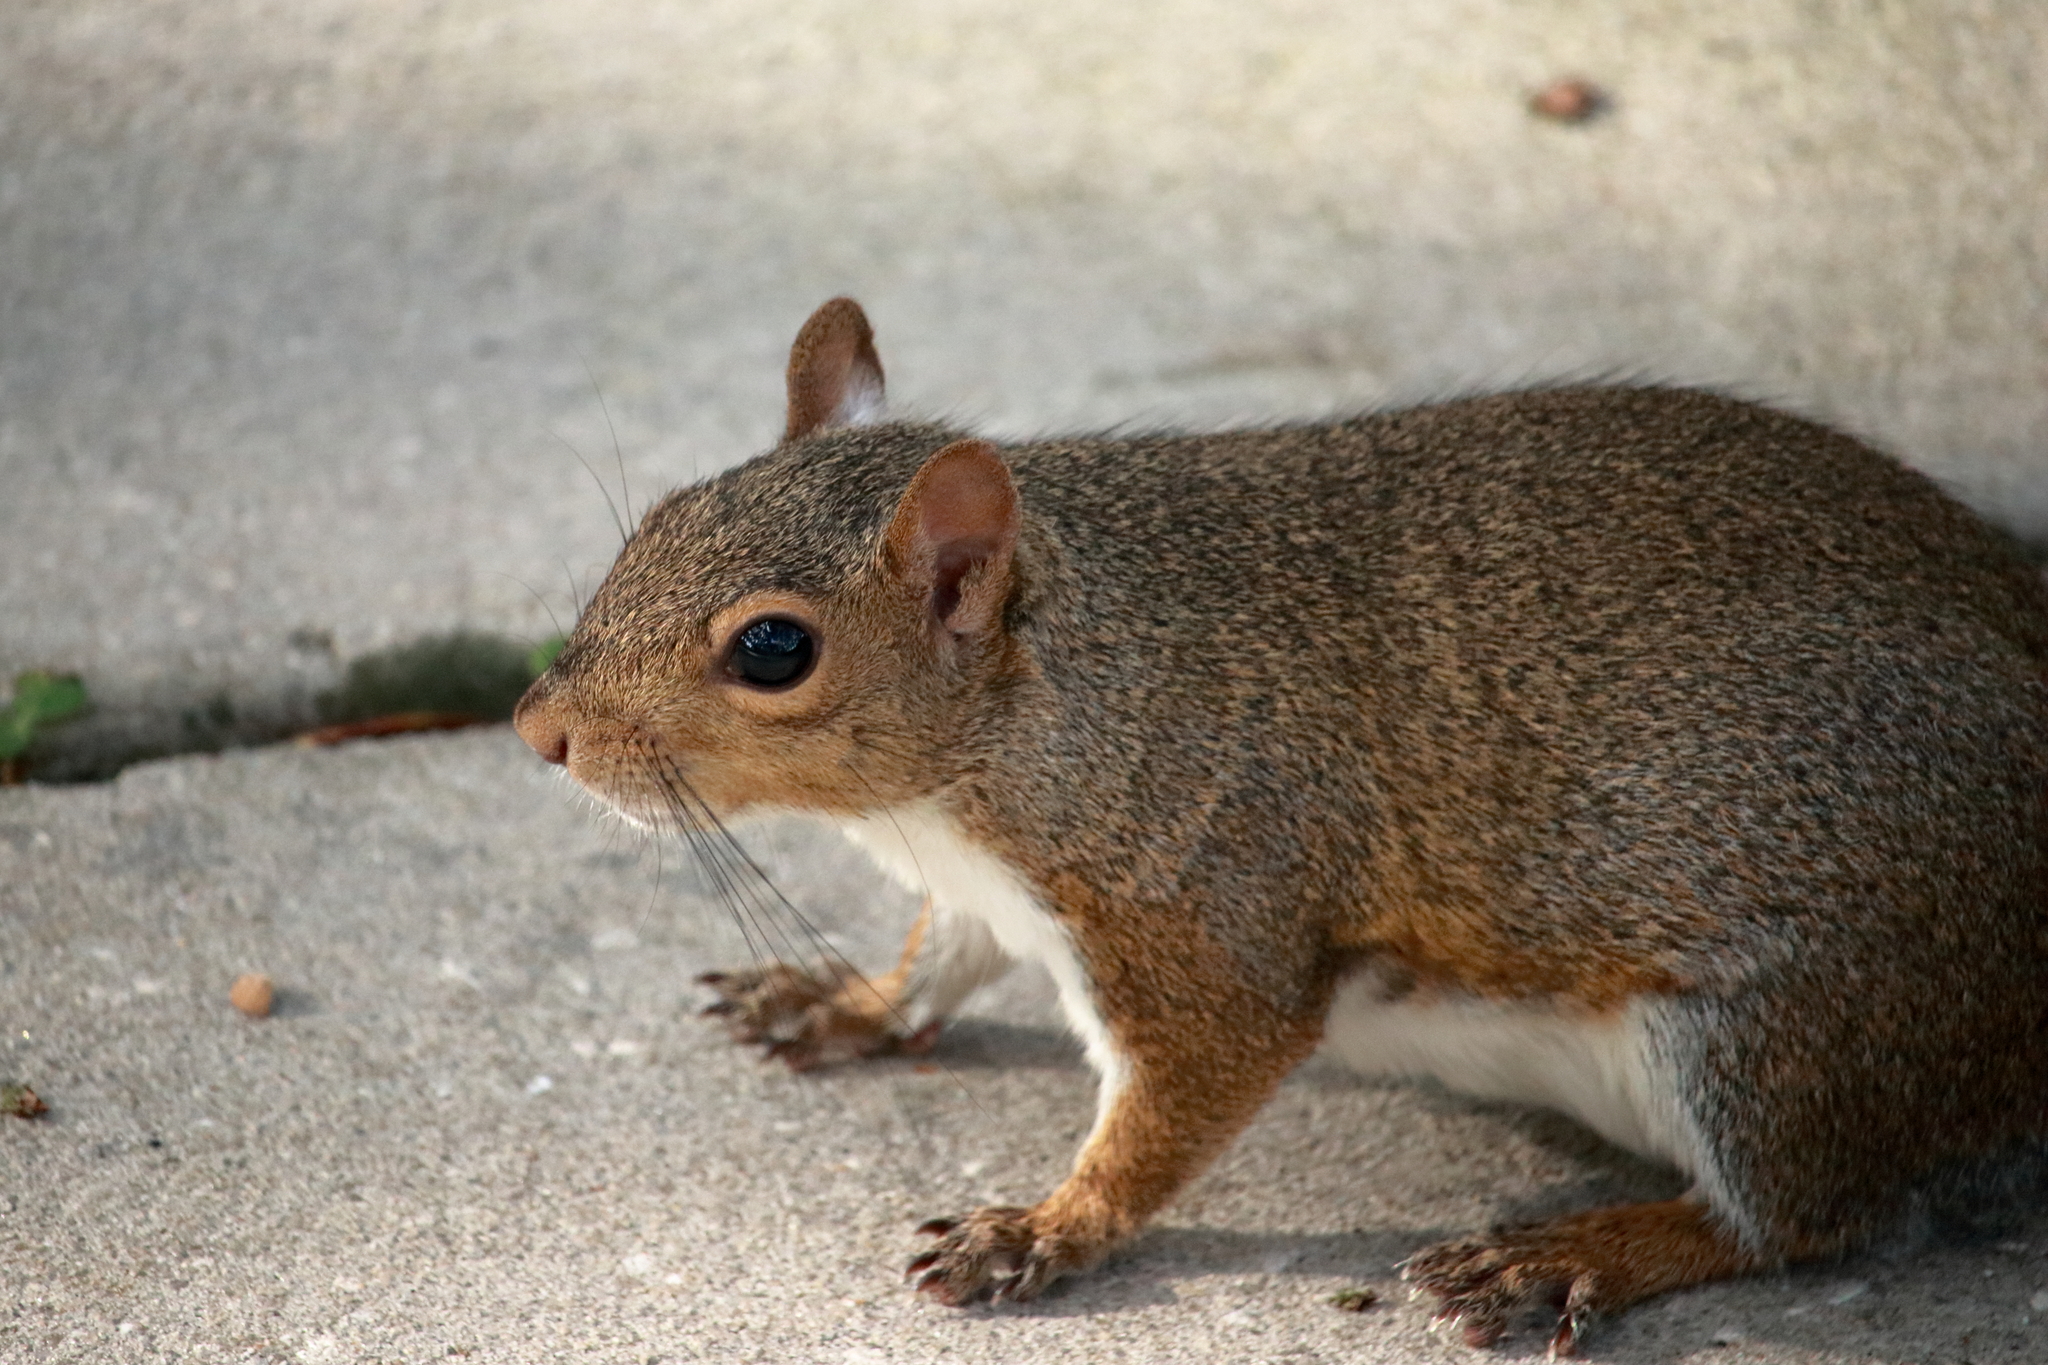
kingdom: Animalia
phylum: Chordata
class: Mammalia
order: Rodentia
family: Sciuridae
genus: Sciurus
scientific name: Sciurus carolinensis
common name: Eastern gray squirrel
